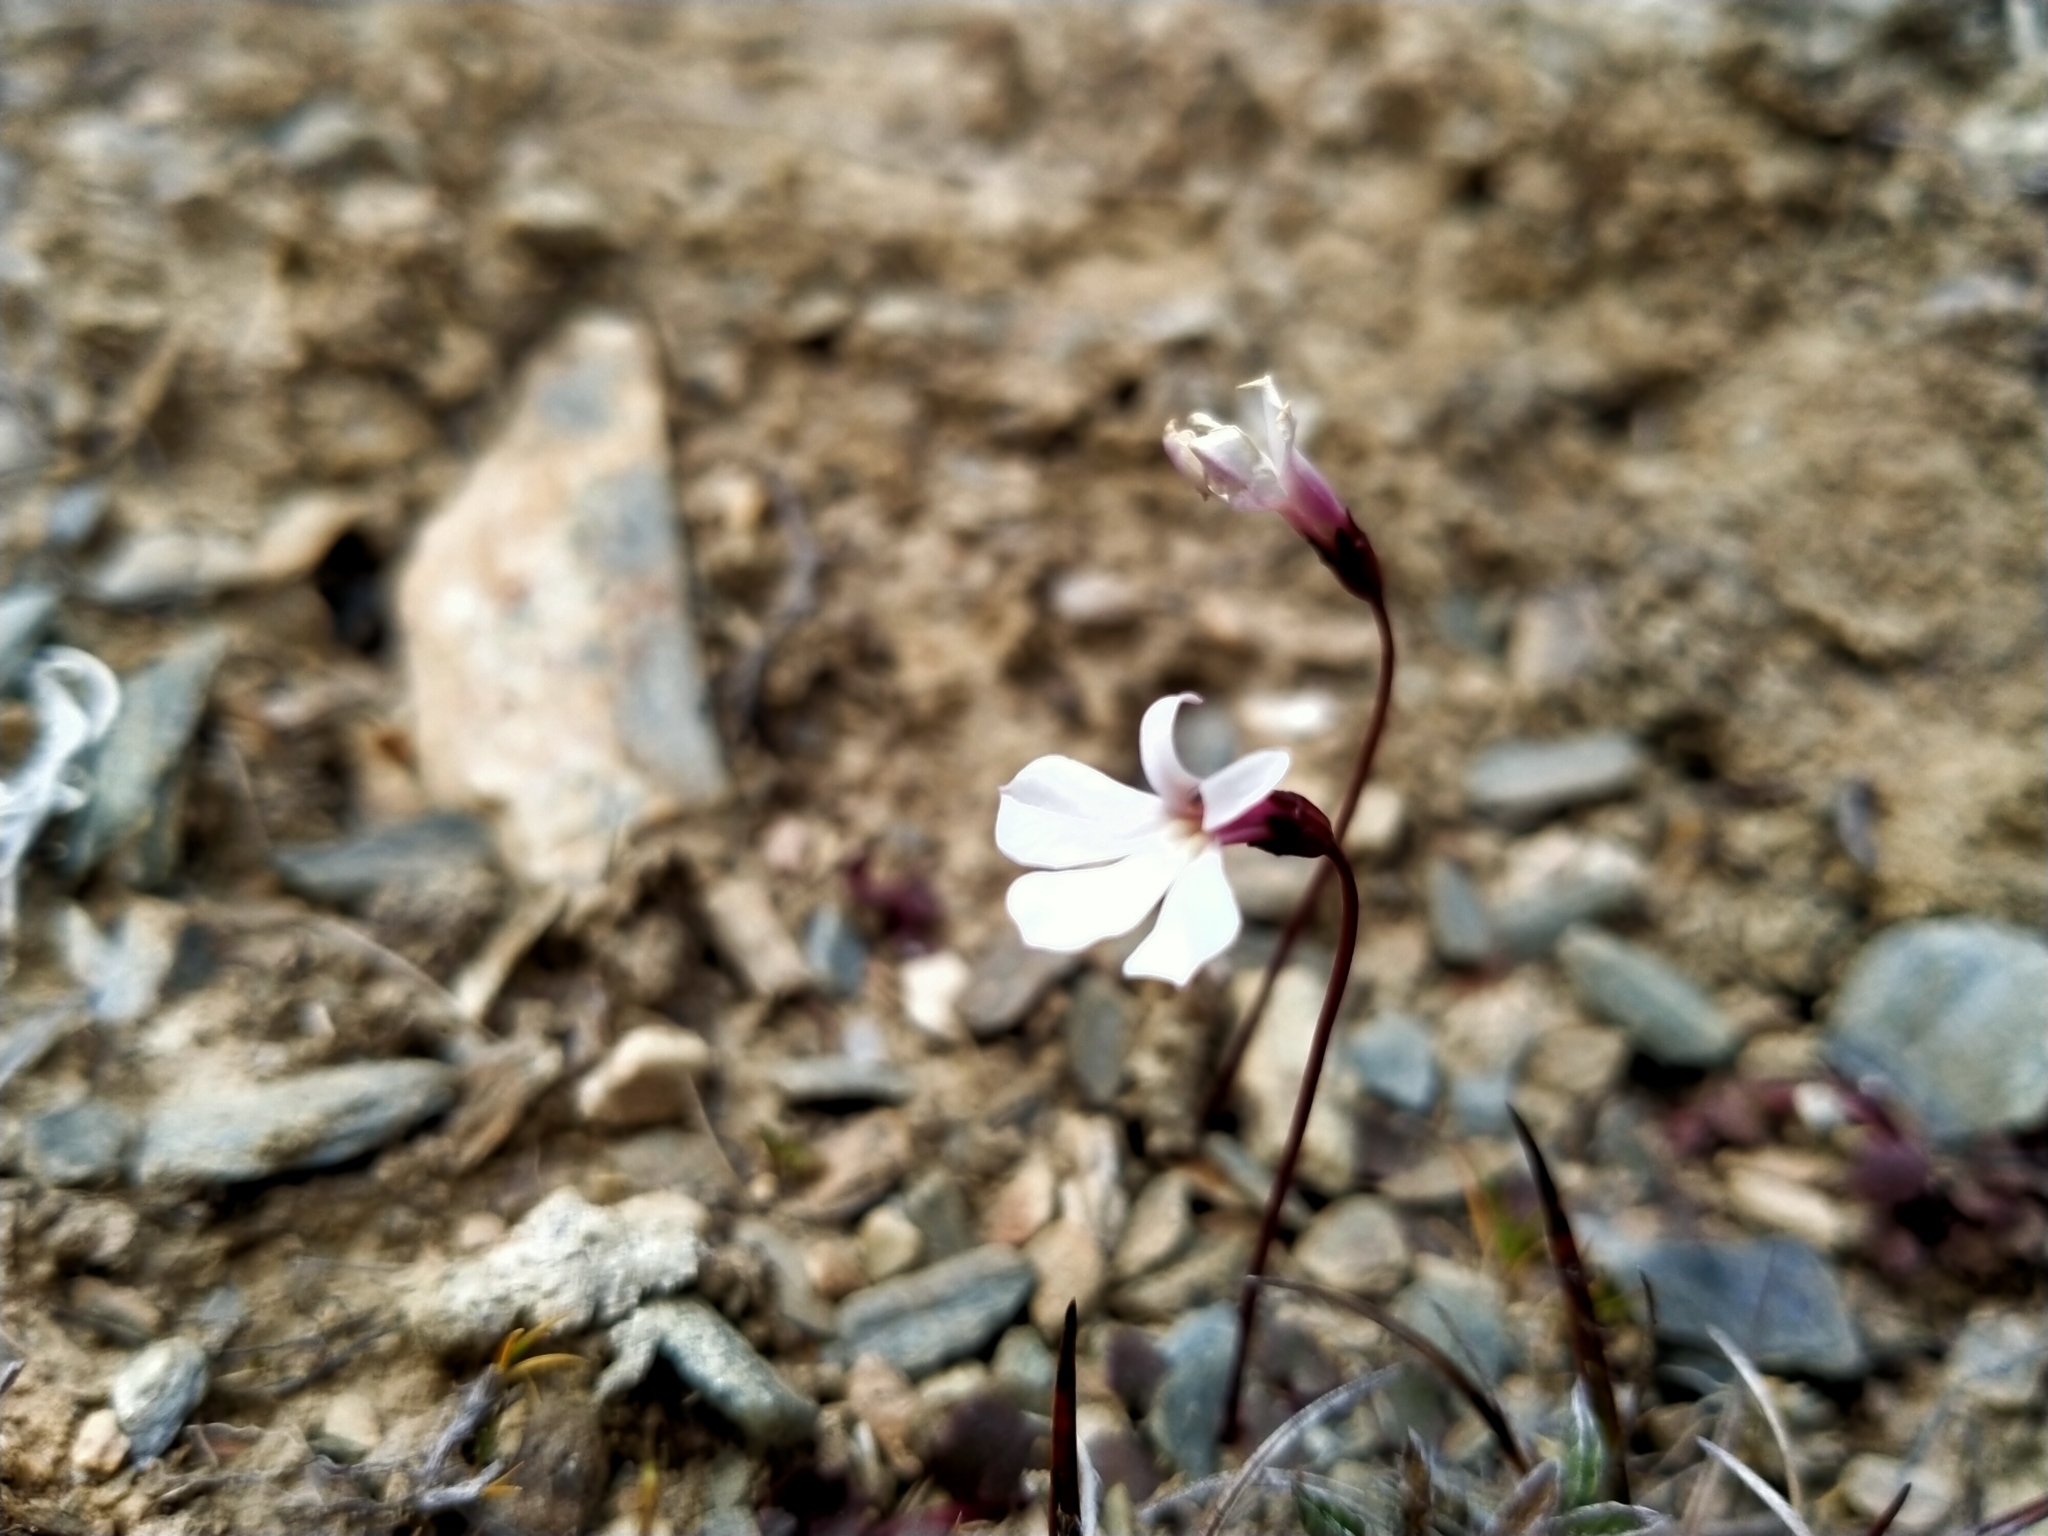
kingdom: Plantae
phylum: Tracheophyta
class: Magnoliopsida
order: Asterales
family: Campanulaceae
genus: Lobelia
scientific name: Lobelia angulata
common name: Lawn lobelia
